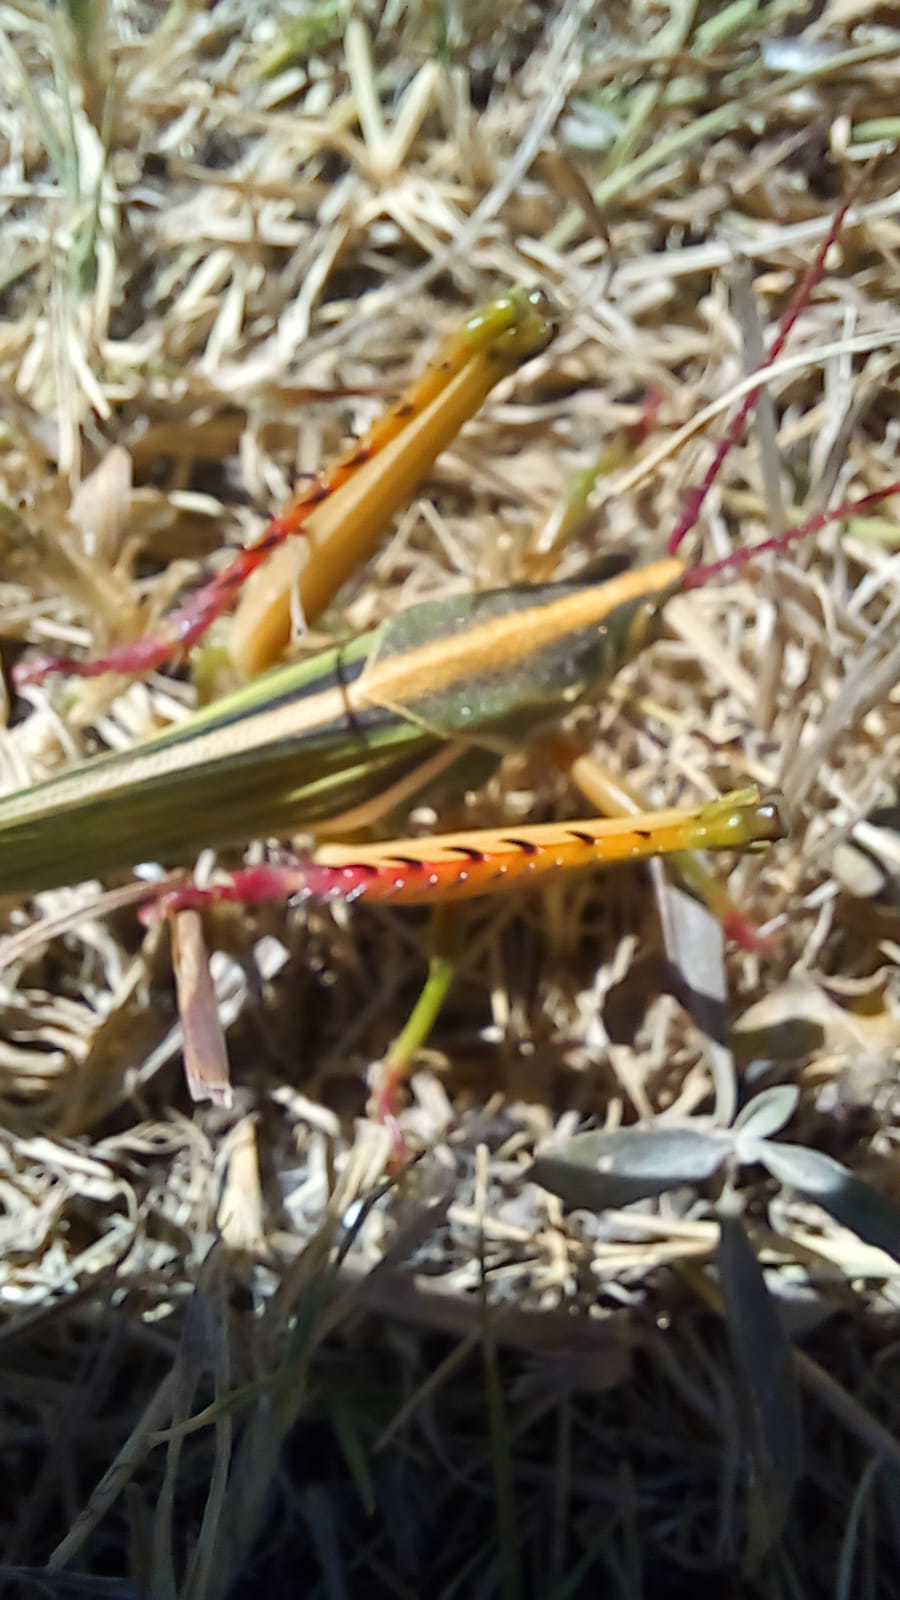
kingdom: Animalia
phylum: Arthropoda
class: Insecta
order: Orthoptera
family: Romaleidae
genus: Staleochlora
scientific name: Staleochlora viridicata
